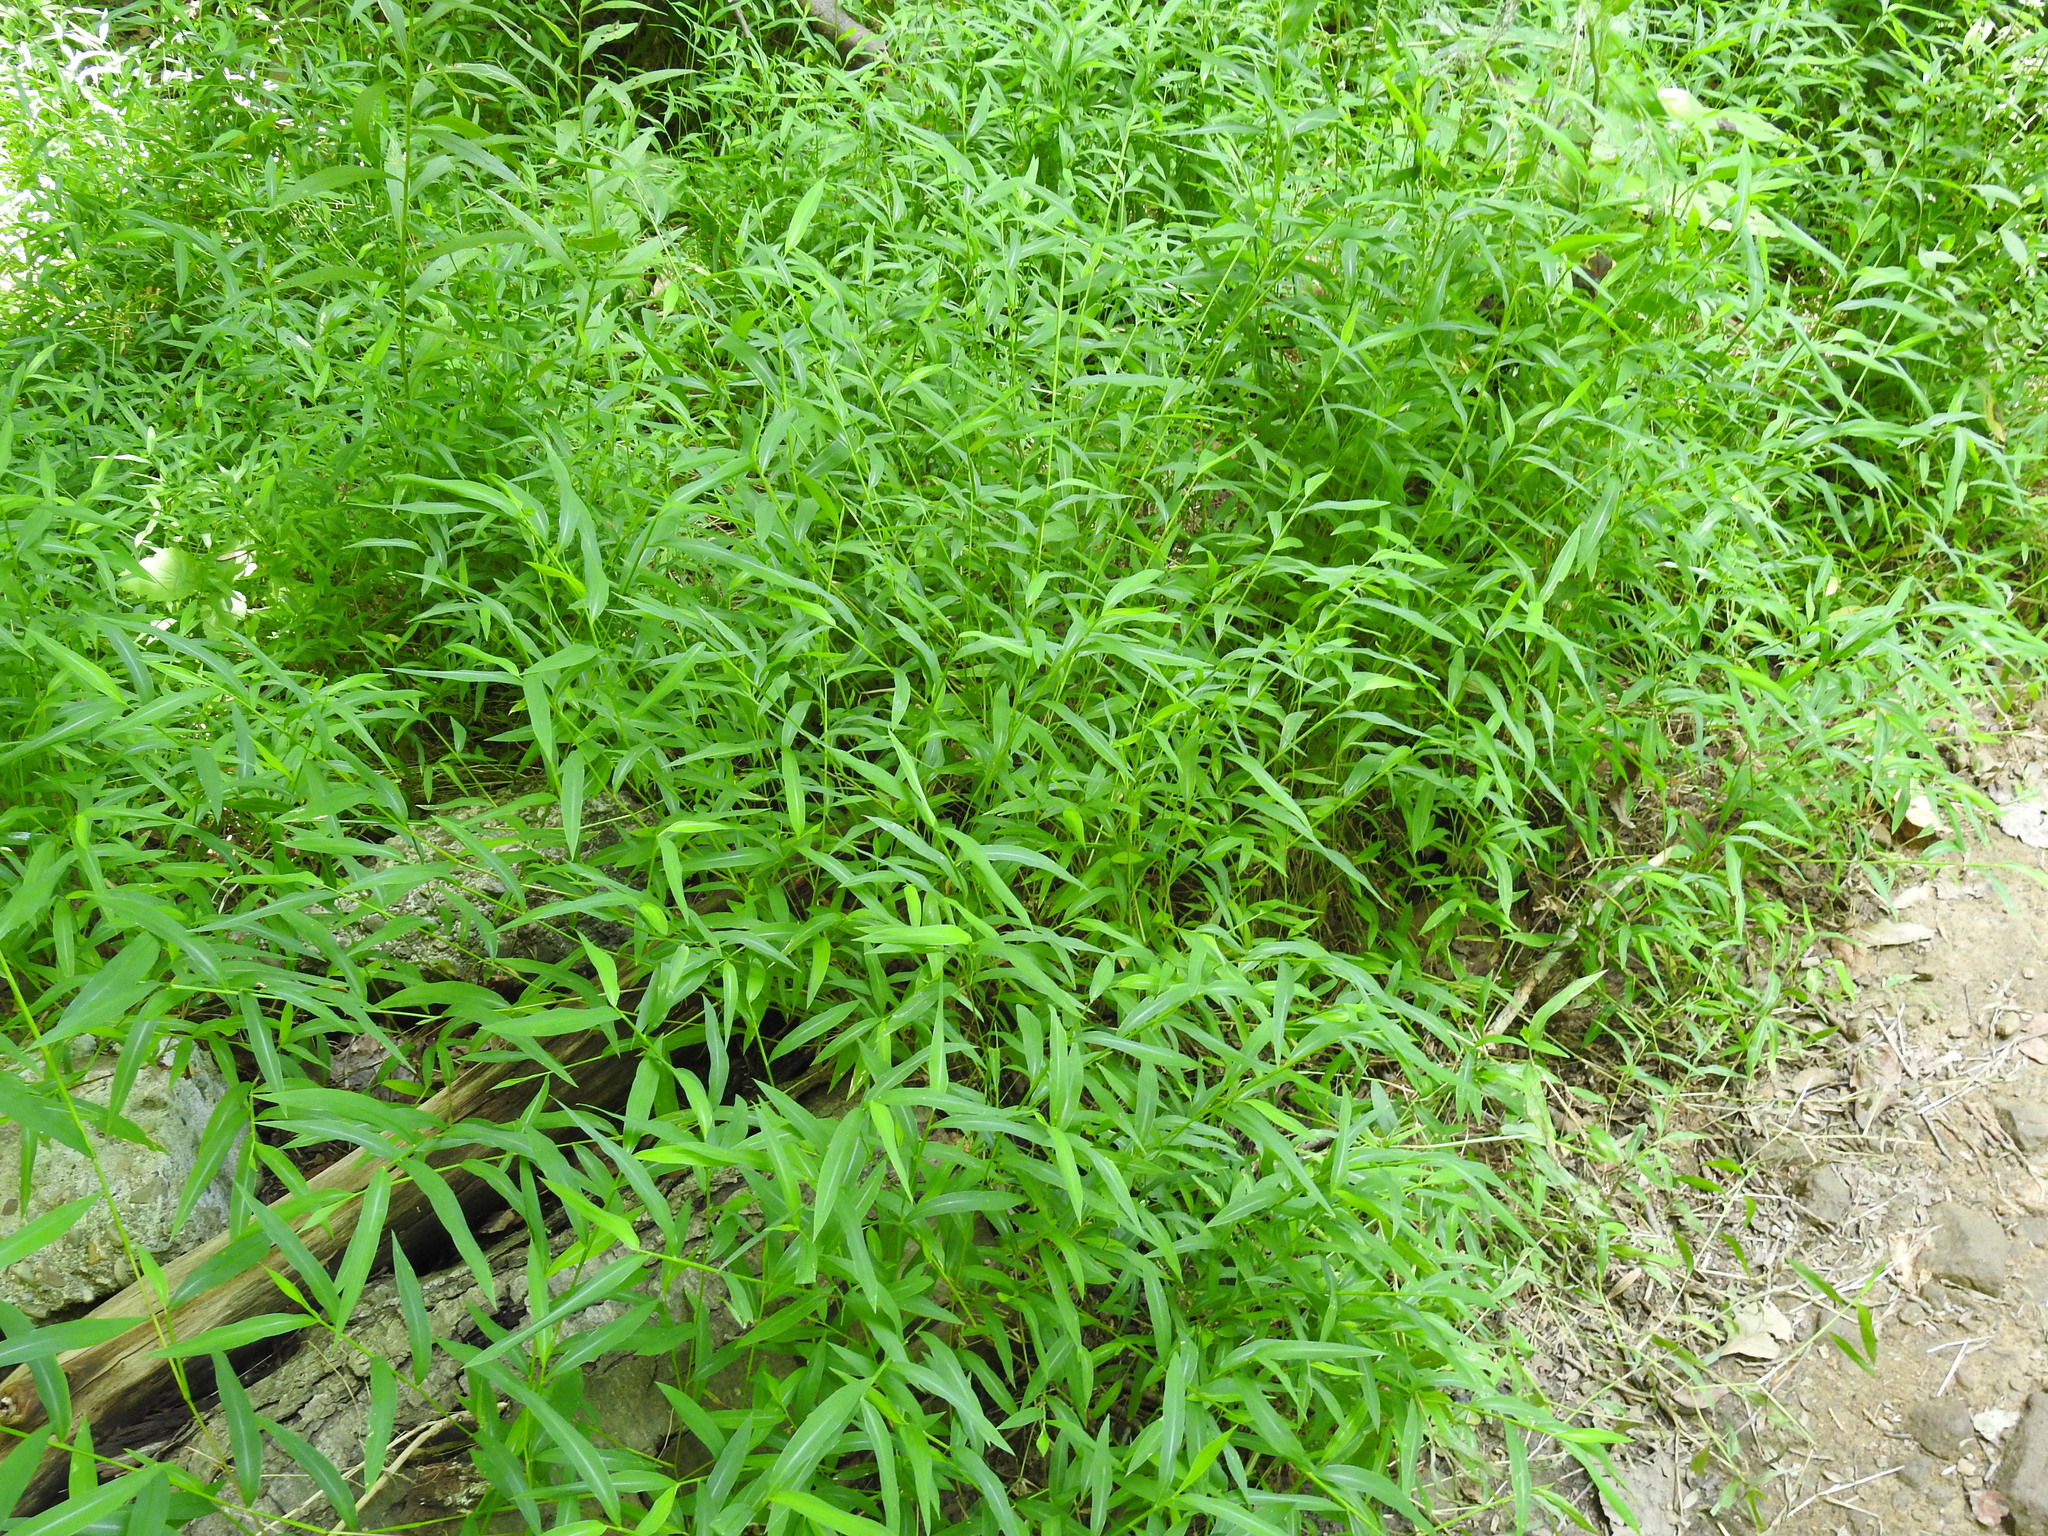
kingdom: Plantae
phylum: Tracheophyta
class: Liliopsida
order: Poales
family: Poaceae
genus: Microstegium
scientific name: Microstegium vimineum
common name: Japanese stiltgrass
